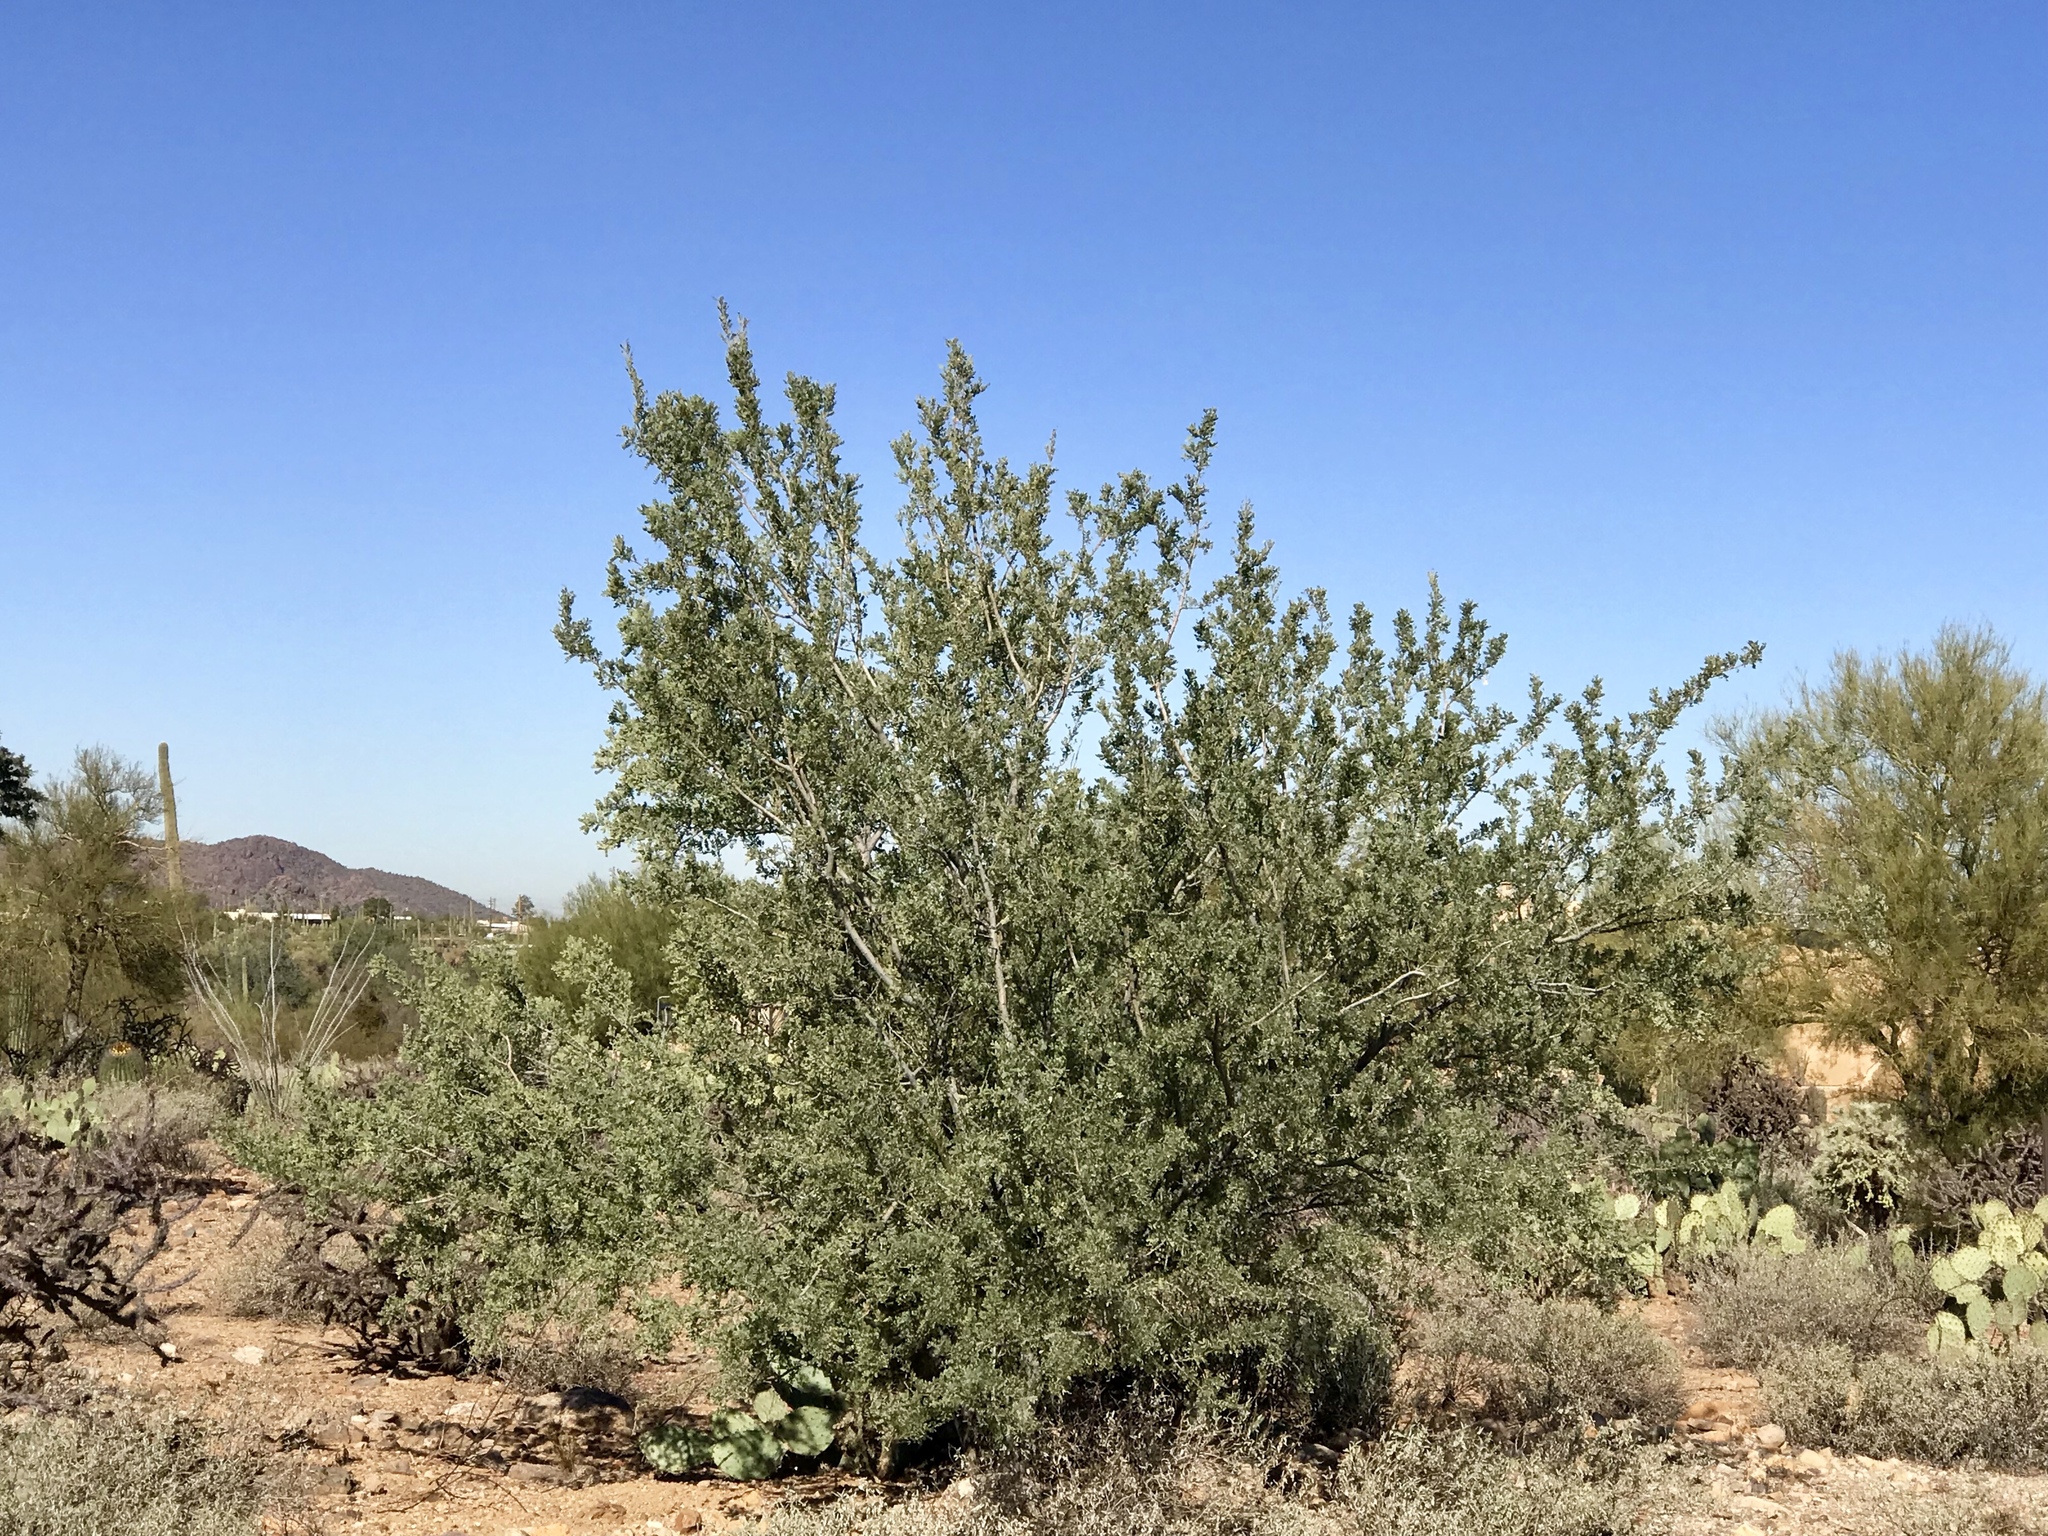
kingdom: Plantae
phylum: Tracheophyta
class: Magnoliopsida
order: Fabales
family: Fabaceae
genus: Olneya
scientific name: Olneya tesota
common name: Desert ironwood
